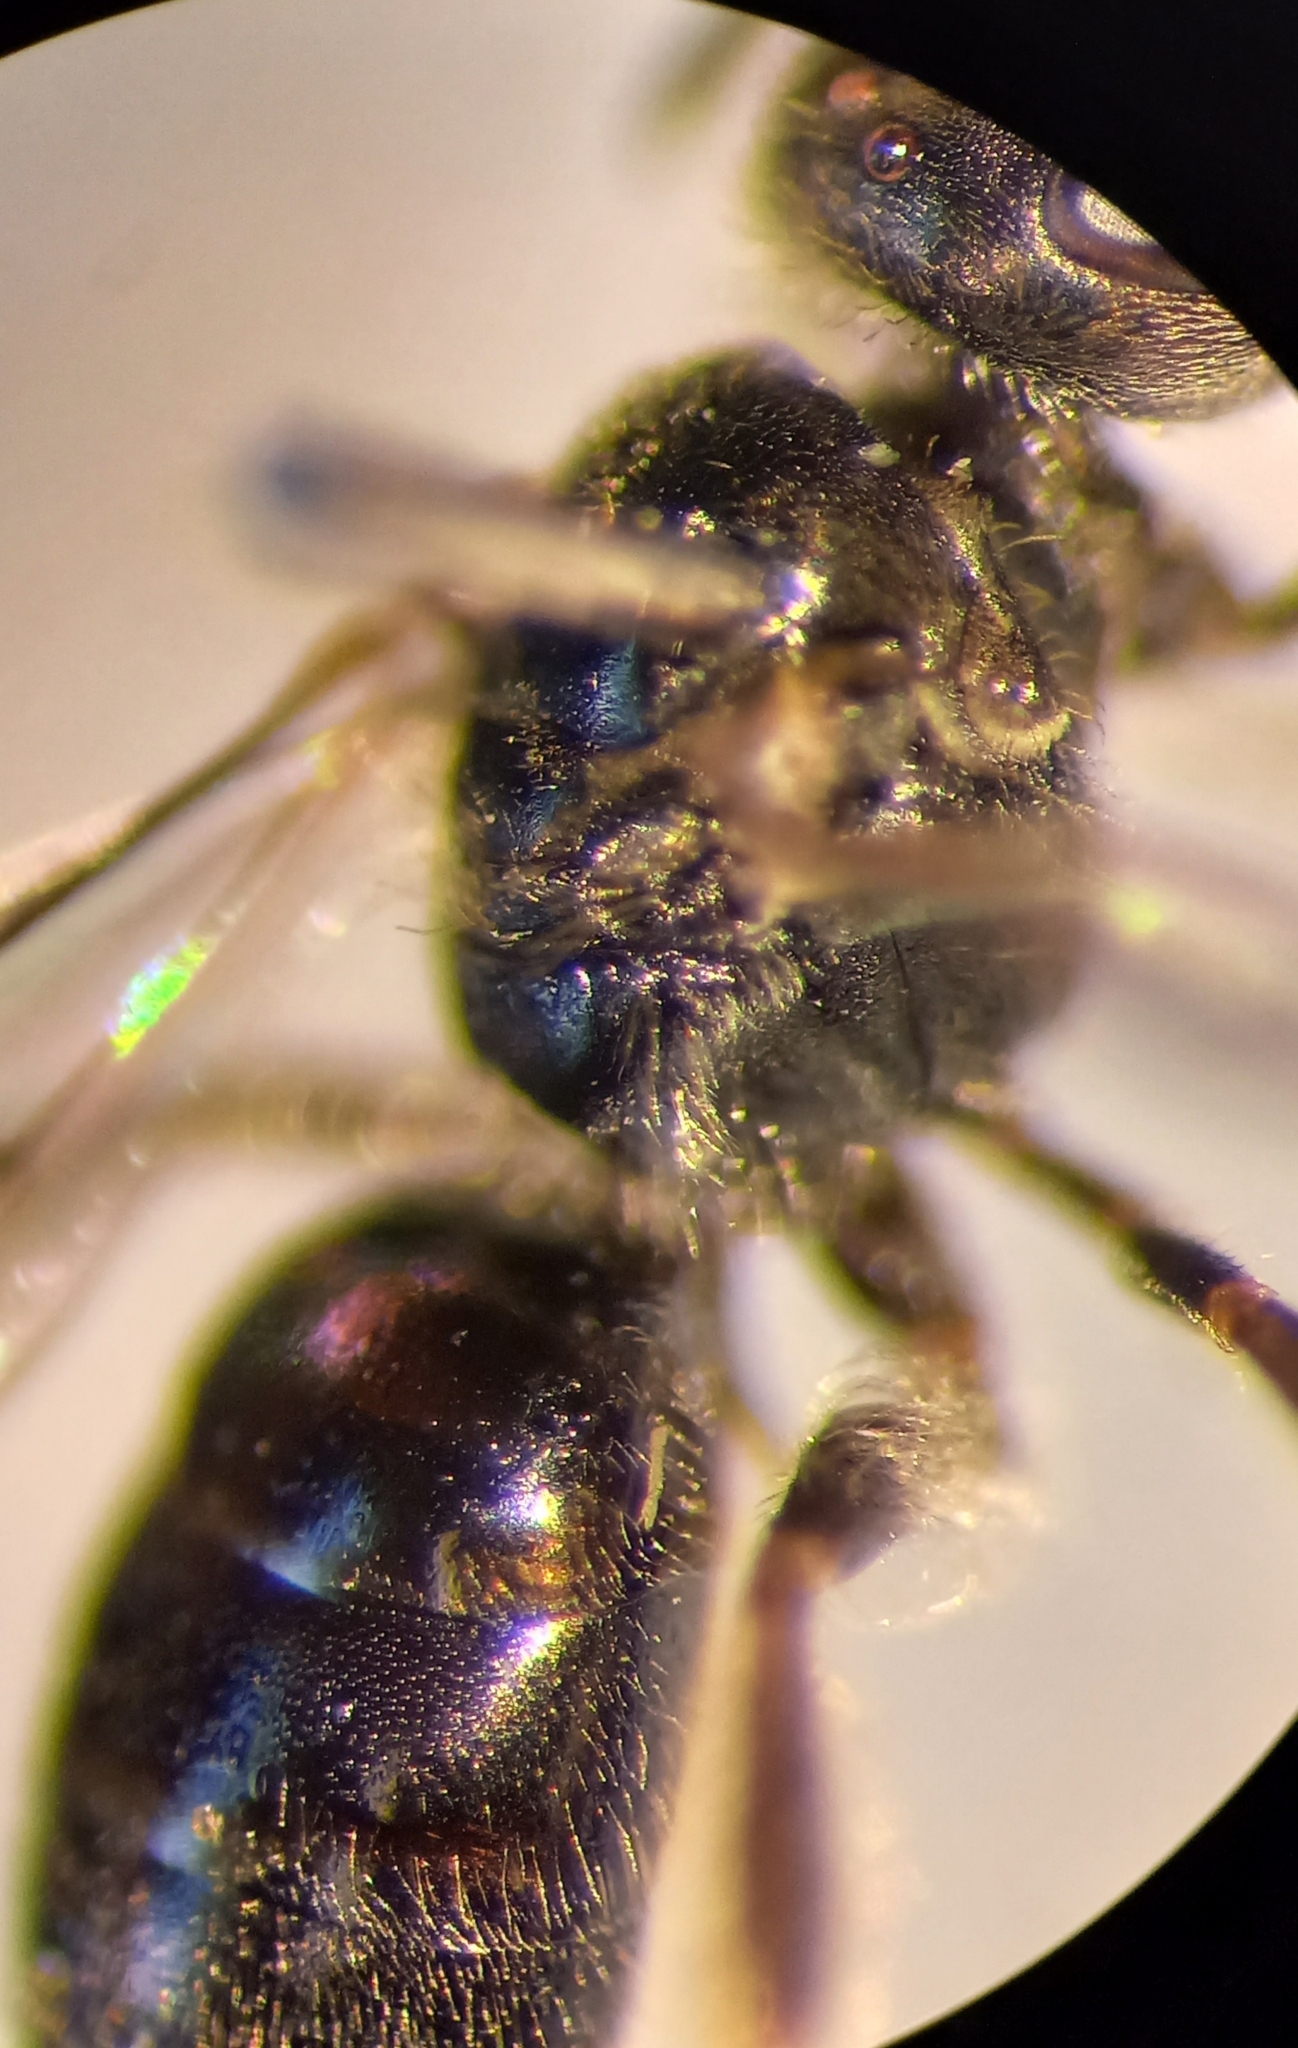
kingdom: Animalia
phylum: Arthropoda
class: Insecta
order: Hymenoptera
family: Halictidae
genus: Lasioglossum
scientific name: Lasioglossum politum
